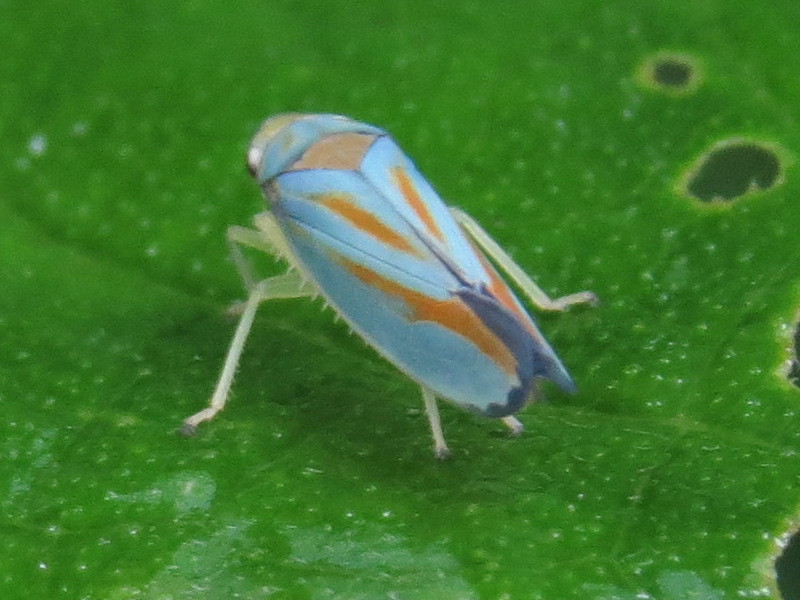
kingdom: Animalia
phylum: Arthropoda
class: Insecta
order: Hemiptera
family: Cicadellidae
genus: Graphocephala
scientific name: Graphocephala fennahi
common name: Rhododendron leafhopper
